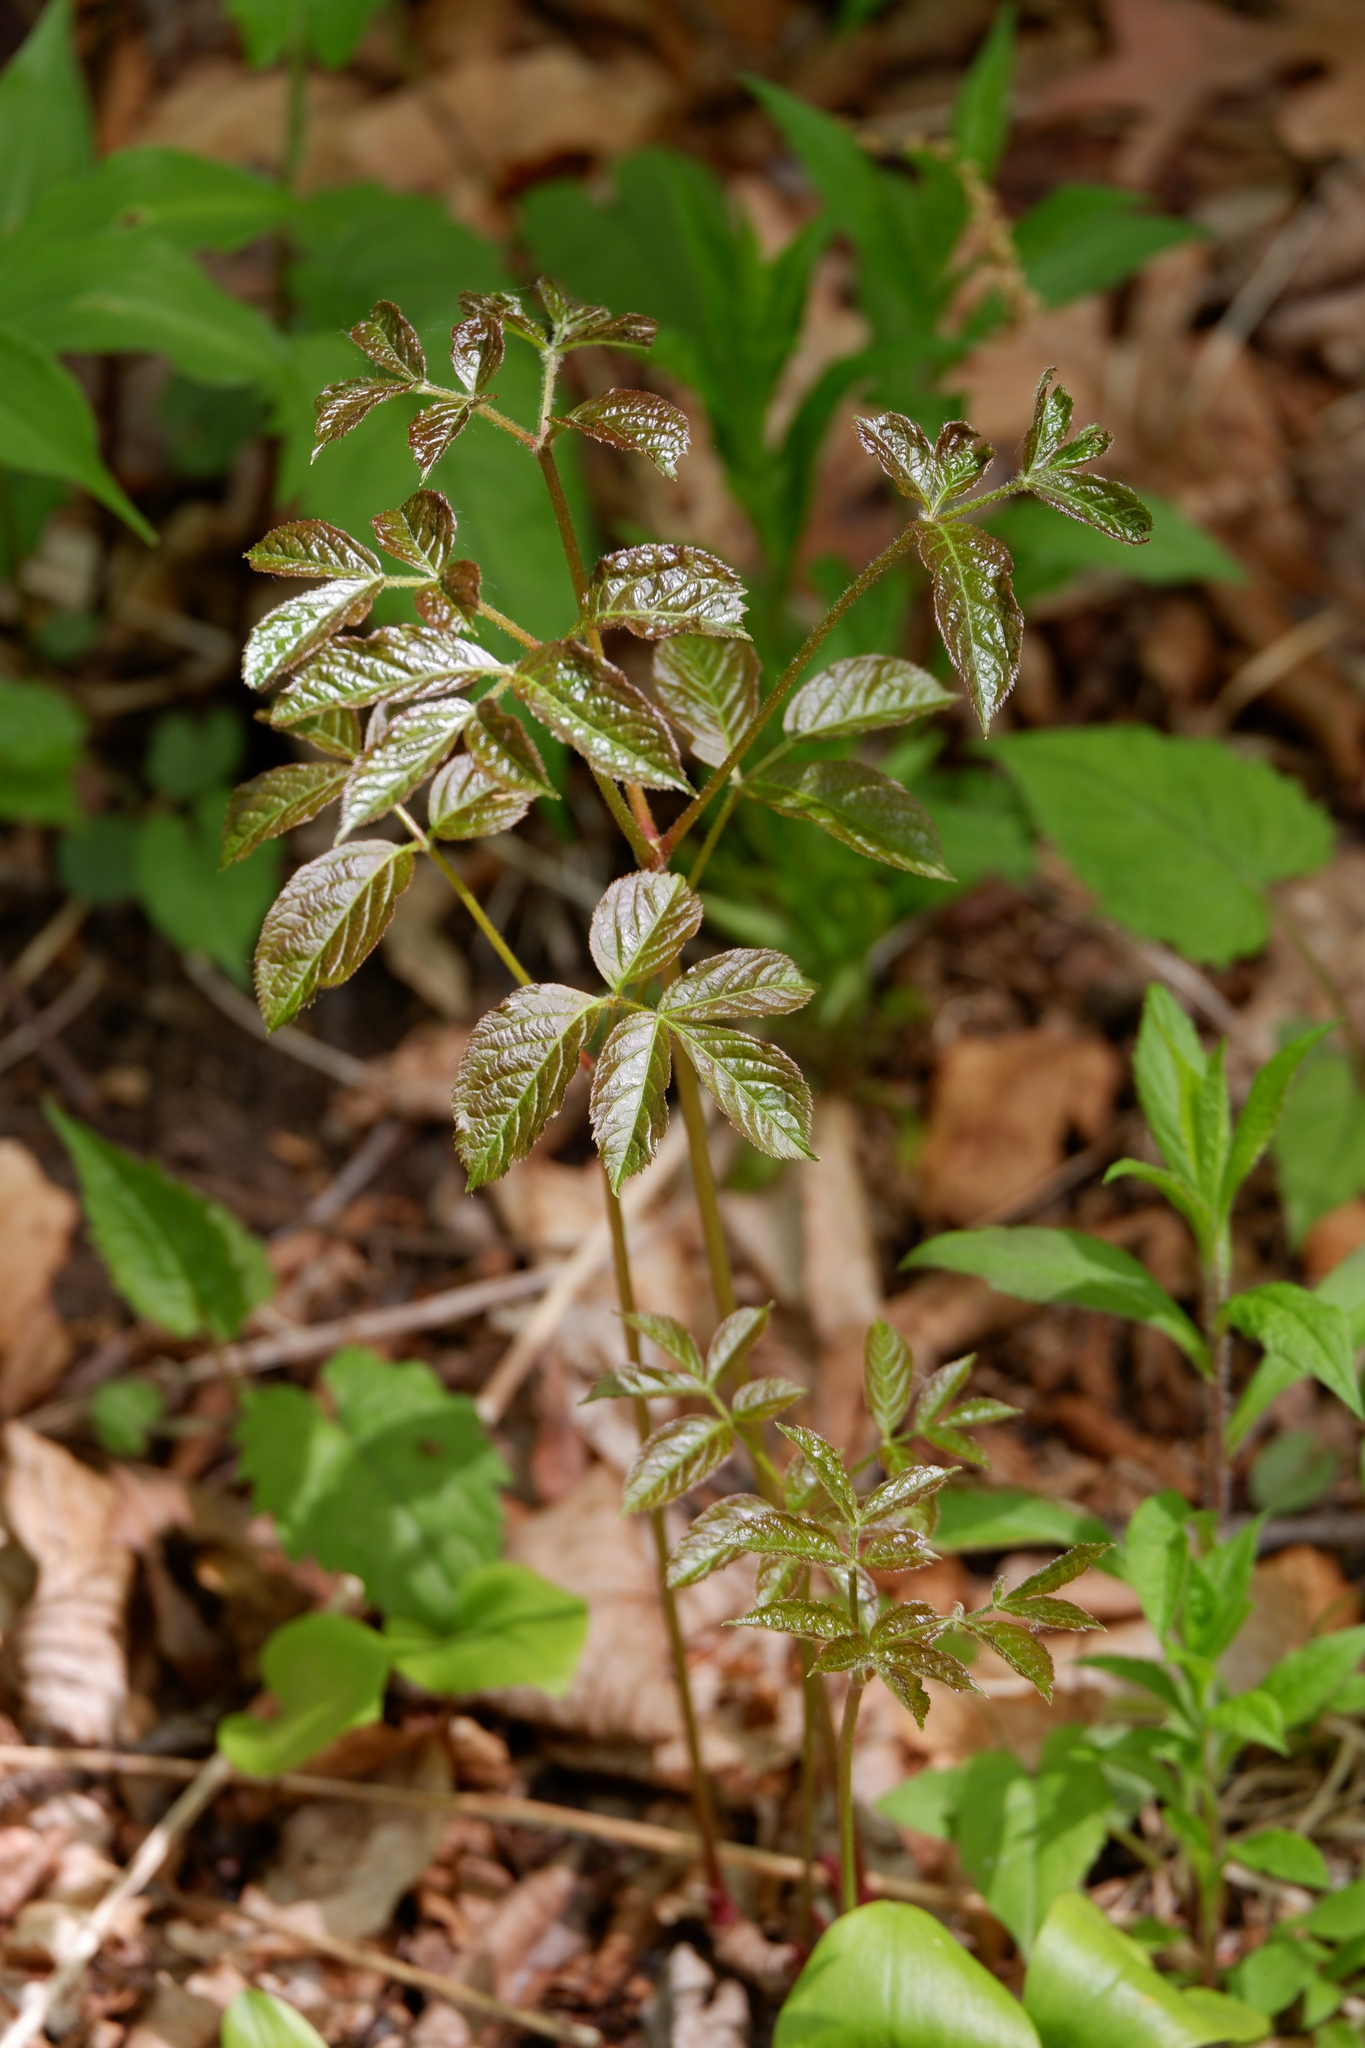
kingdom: Plantae
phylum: Tracheophyta
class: Magnoliopsida
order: Apiales
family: Araliaceae
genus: Aralia
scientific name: Aralia nudicaulis
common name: Wild sarsaparilla
